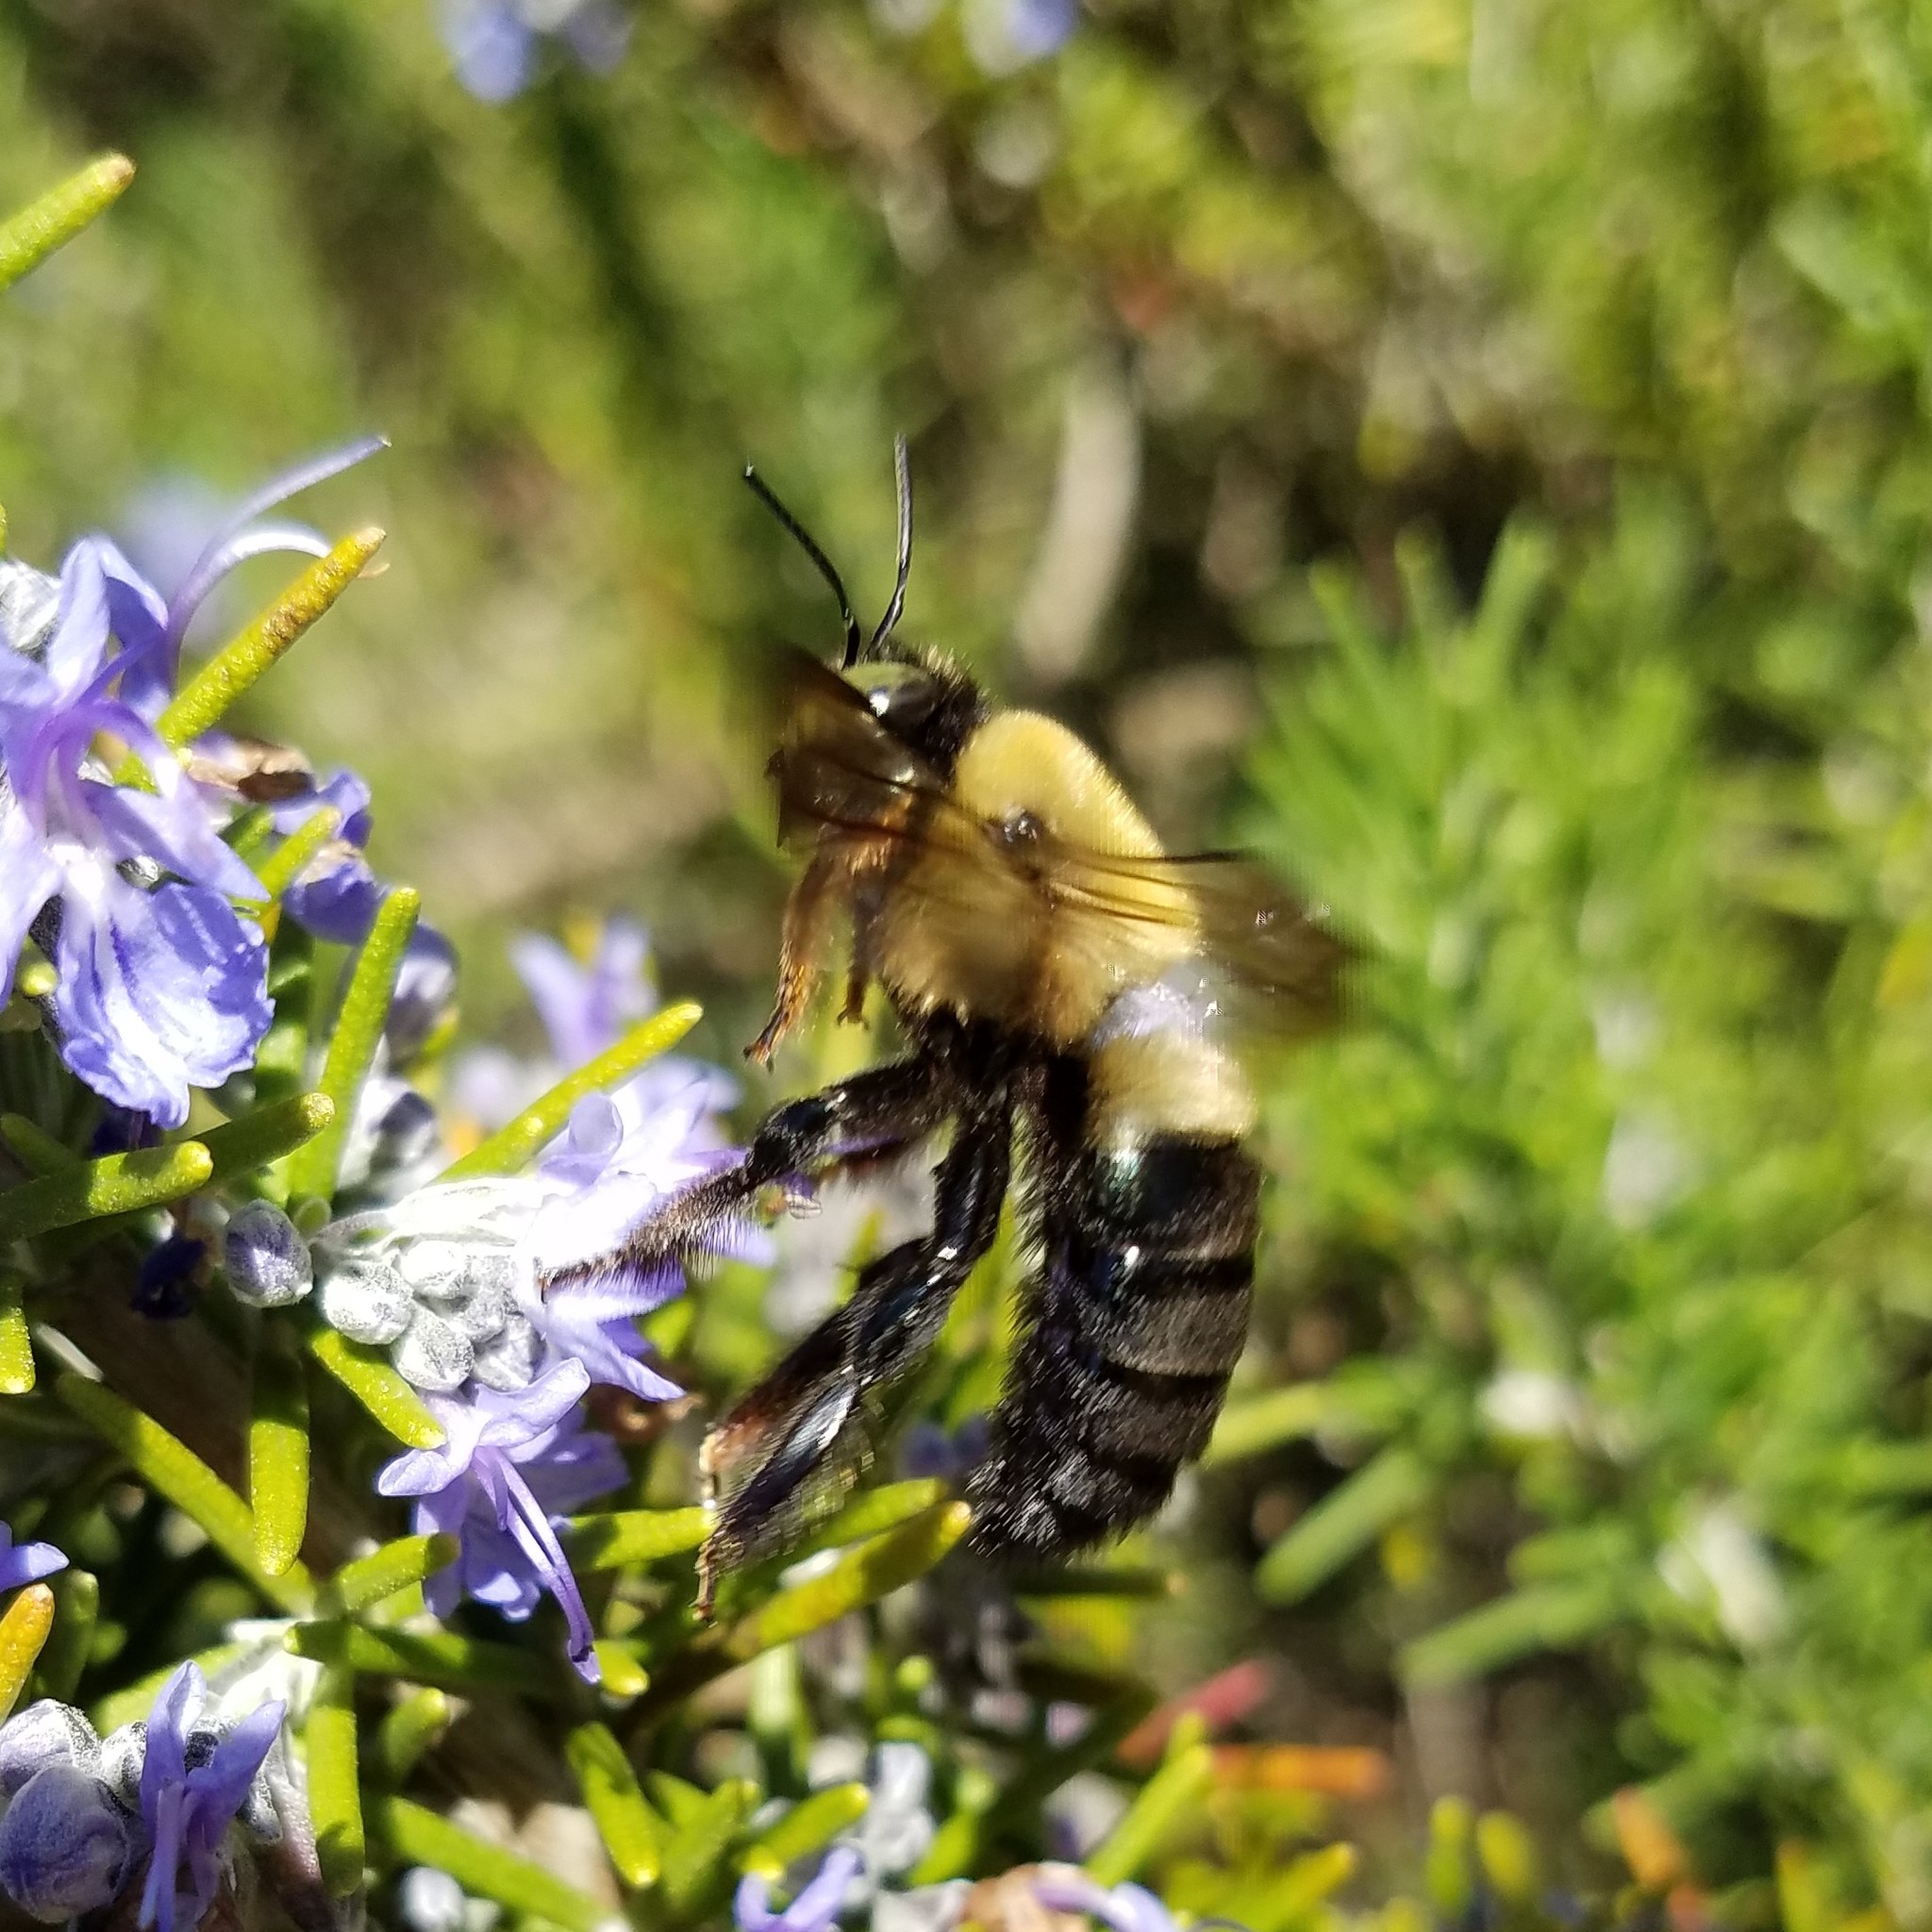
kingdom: Animalia
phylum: Arthropoda
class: Insecta
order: Hymenoptera
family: Apidae
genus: Xylocopa
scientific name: Xylocopa virginica
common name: Carpenter bee
